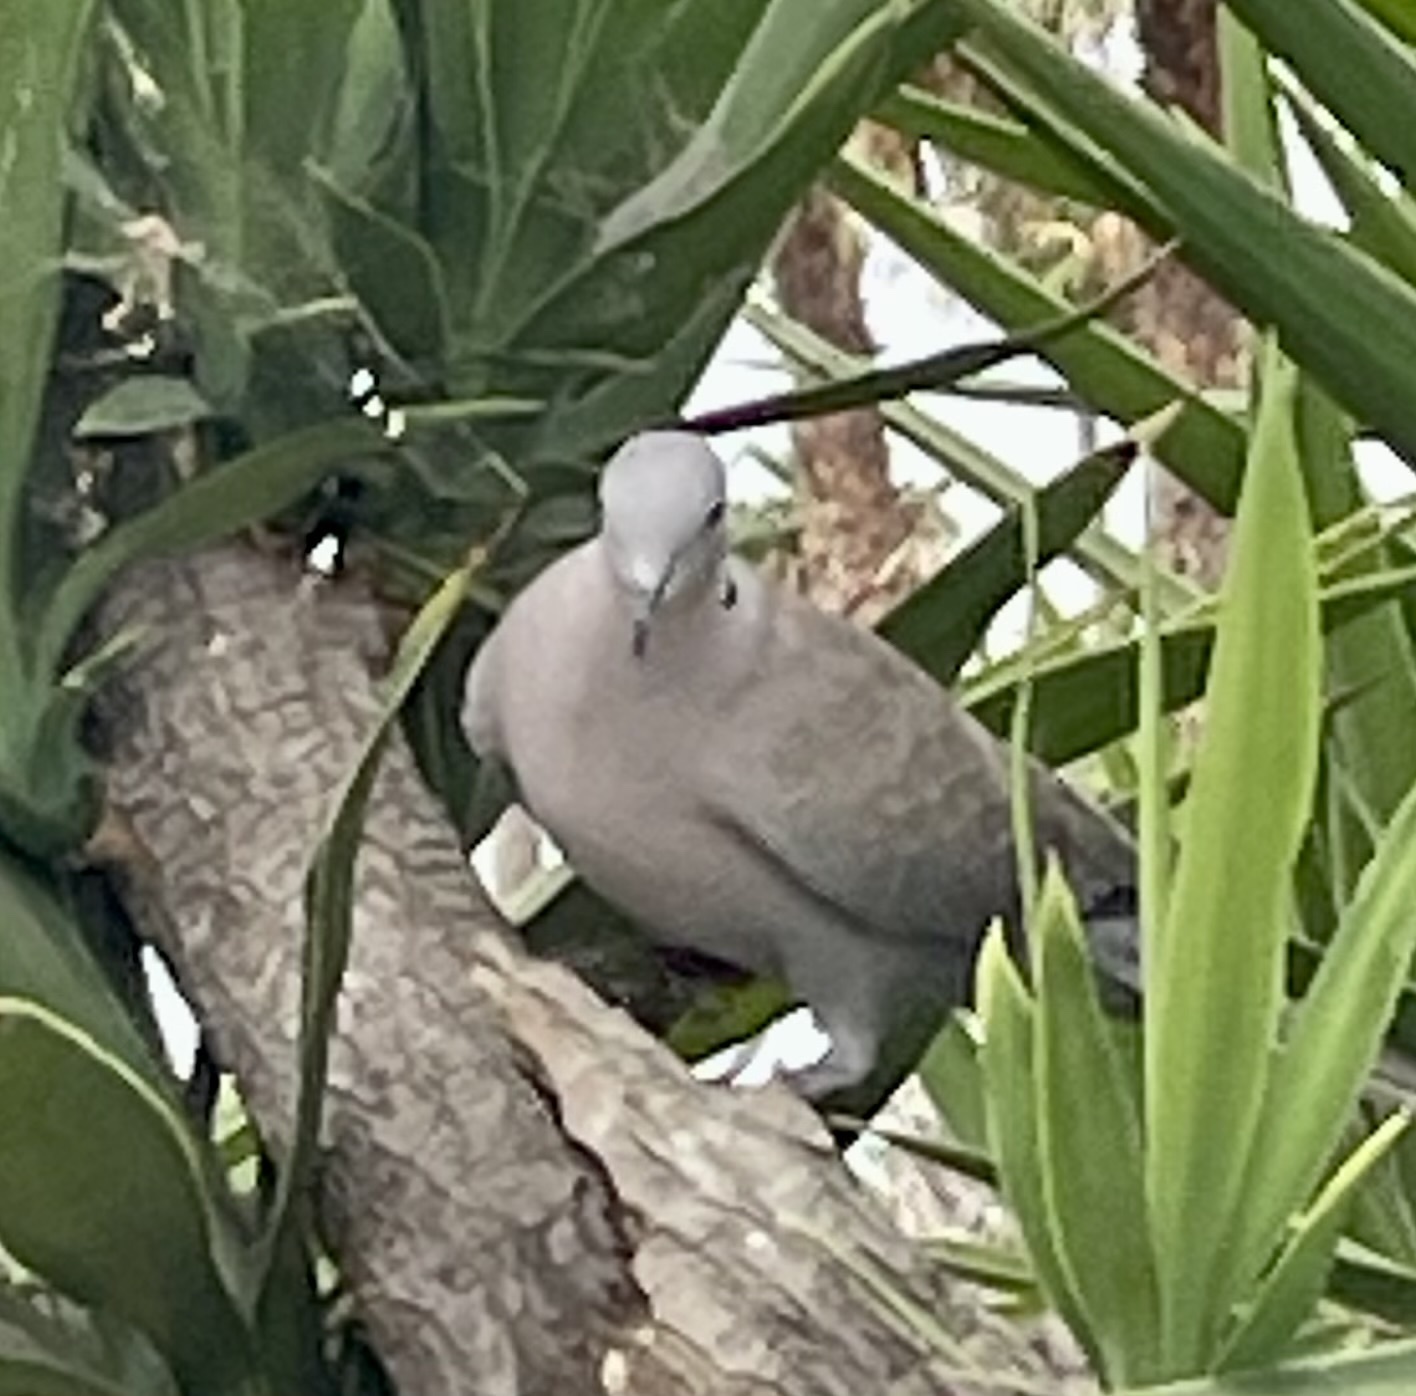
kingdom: Animalia
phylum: Chordata
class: Aves
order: Columbiformes
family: Columbidae
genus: Streptopelia
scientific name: Streptopelia decaocto
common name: Eurasian collared dove
